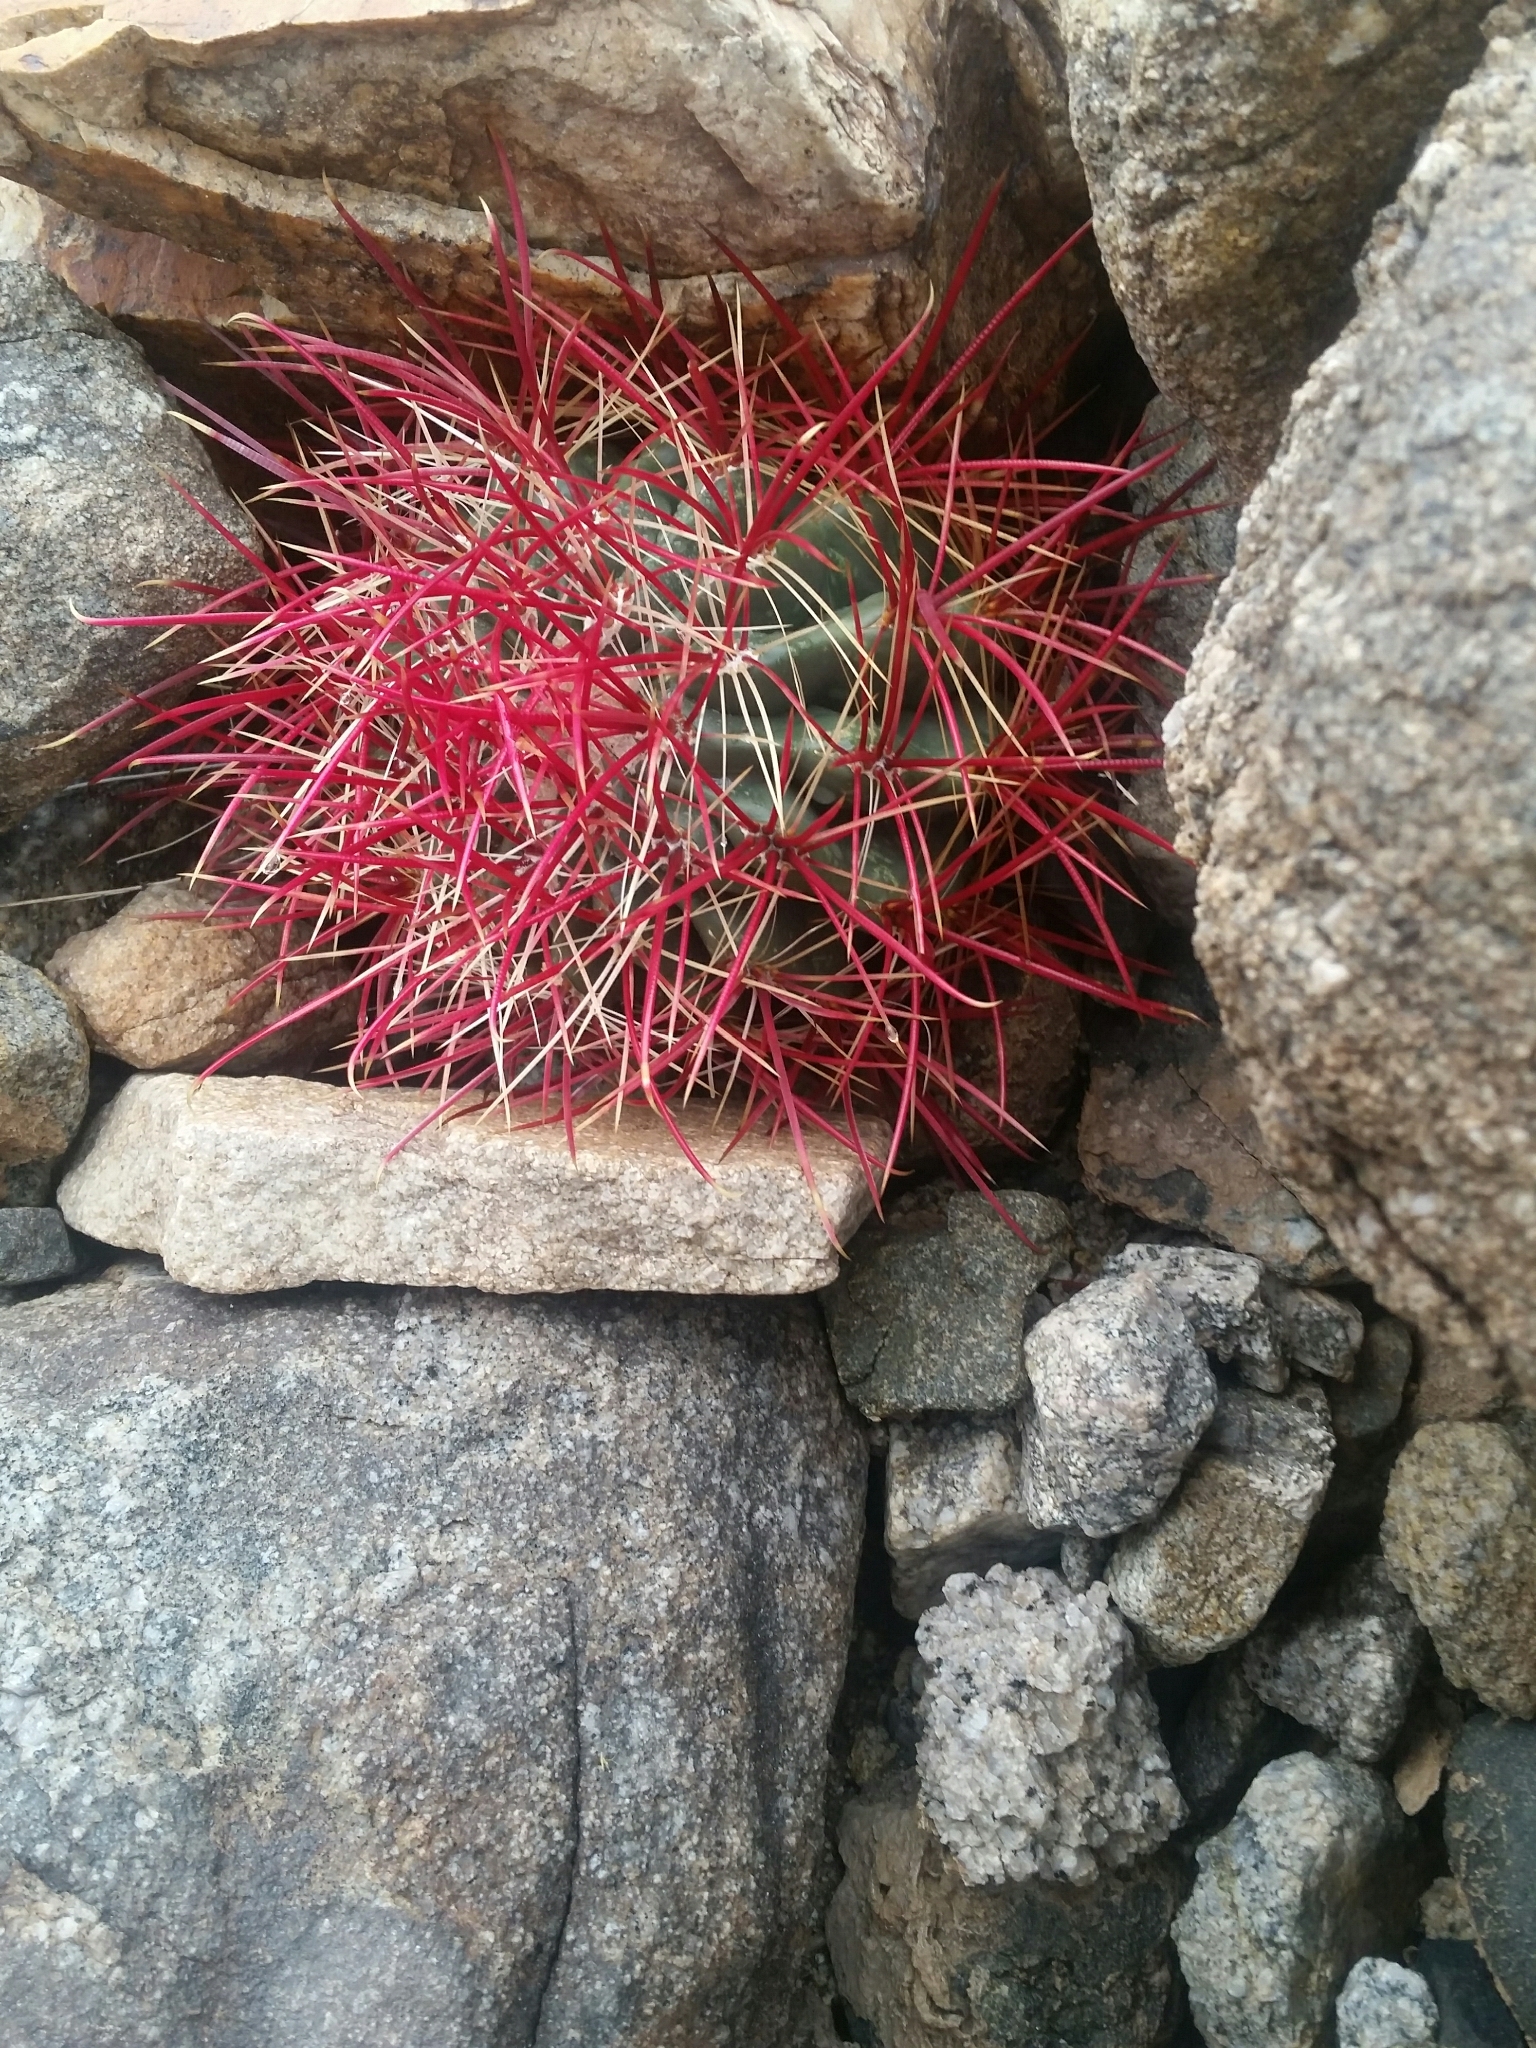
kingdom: Plantae
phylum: Tracheophyta
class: Magnoliopsida
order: Caryophyllales
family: Cactaceae
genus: Ferocactus
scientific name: Ferocactus cylindraceus
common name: California barrel cactus
